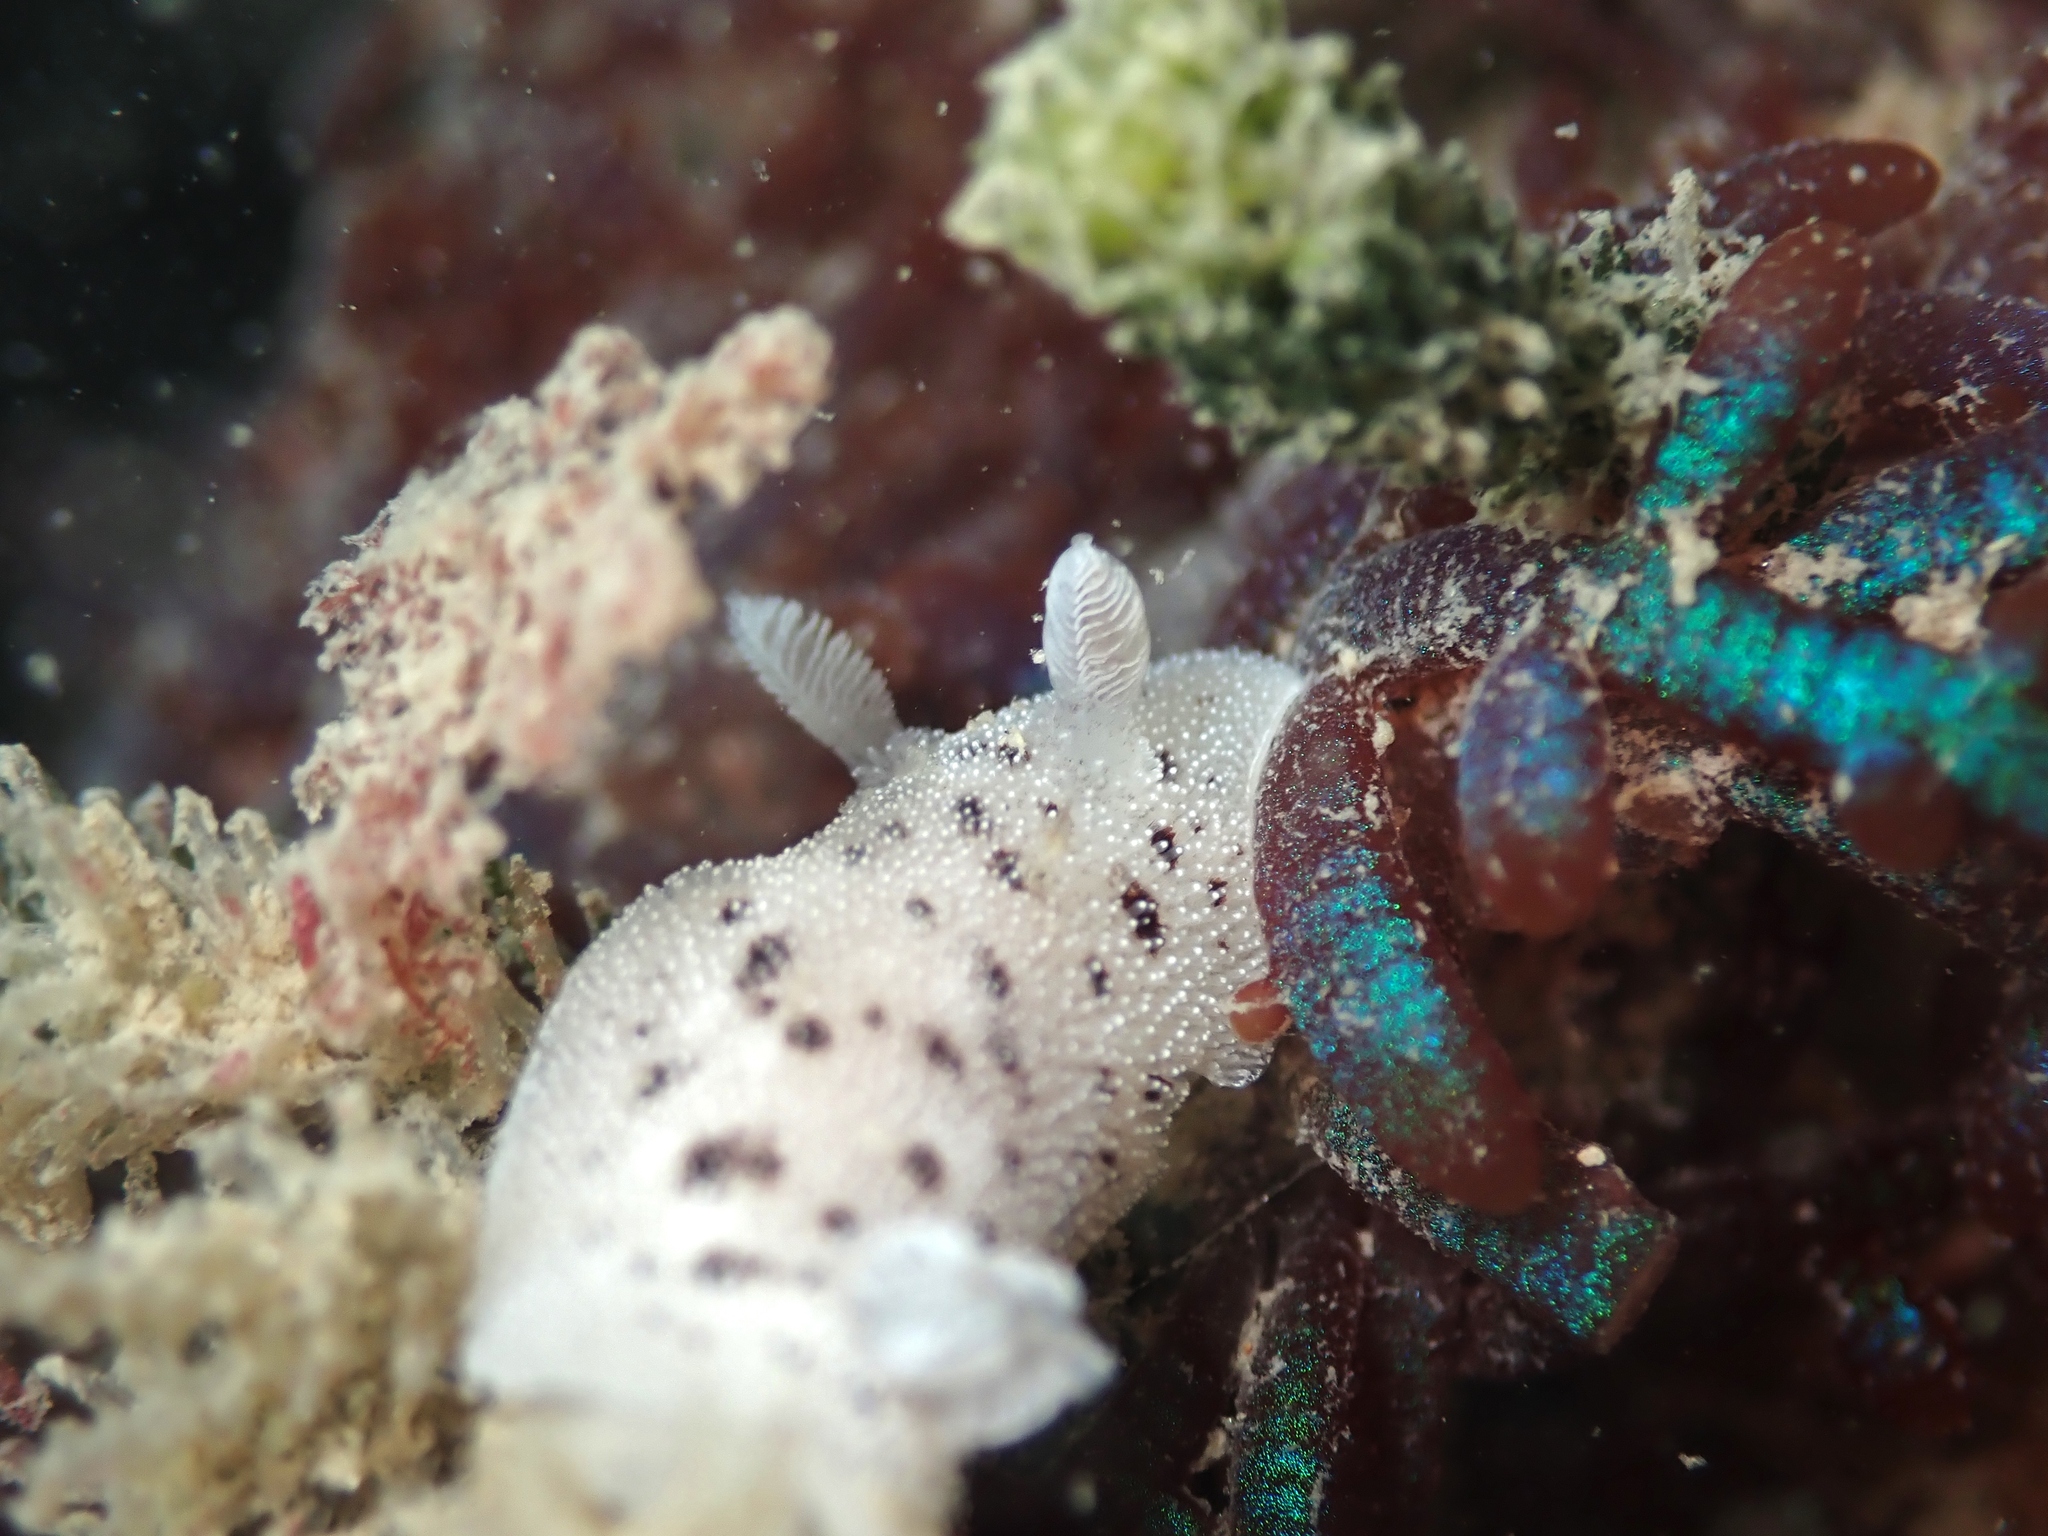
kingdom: Animalia
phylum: Mollusca
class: Gastropoda
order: Nudibranchia
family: Discodorididae
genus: Alloiodoris
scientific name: Alloiodoris lanuginata
